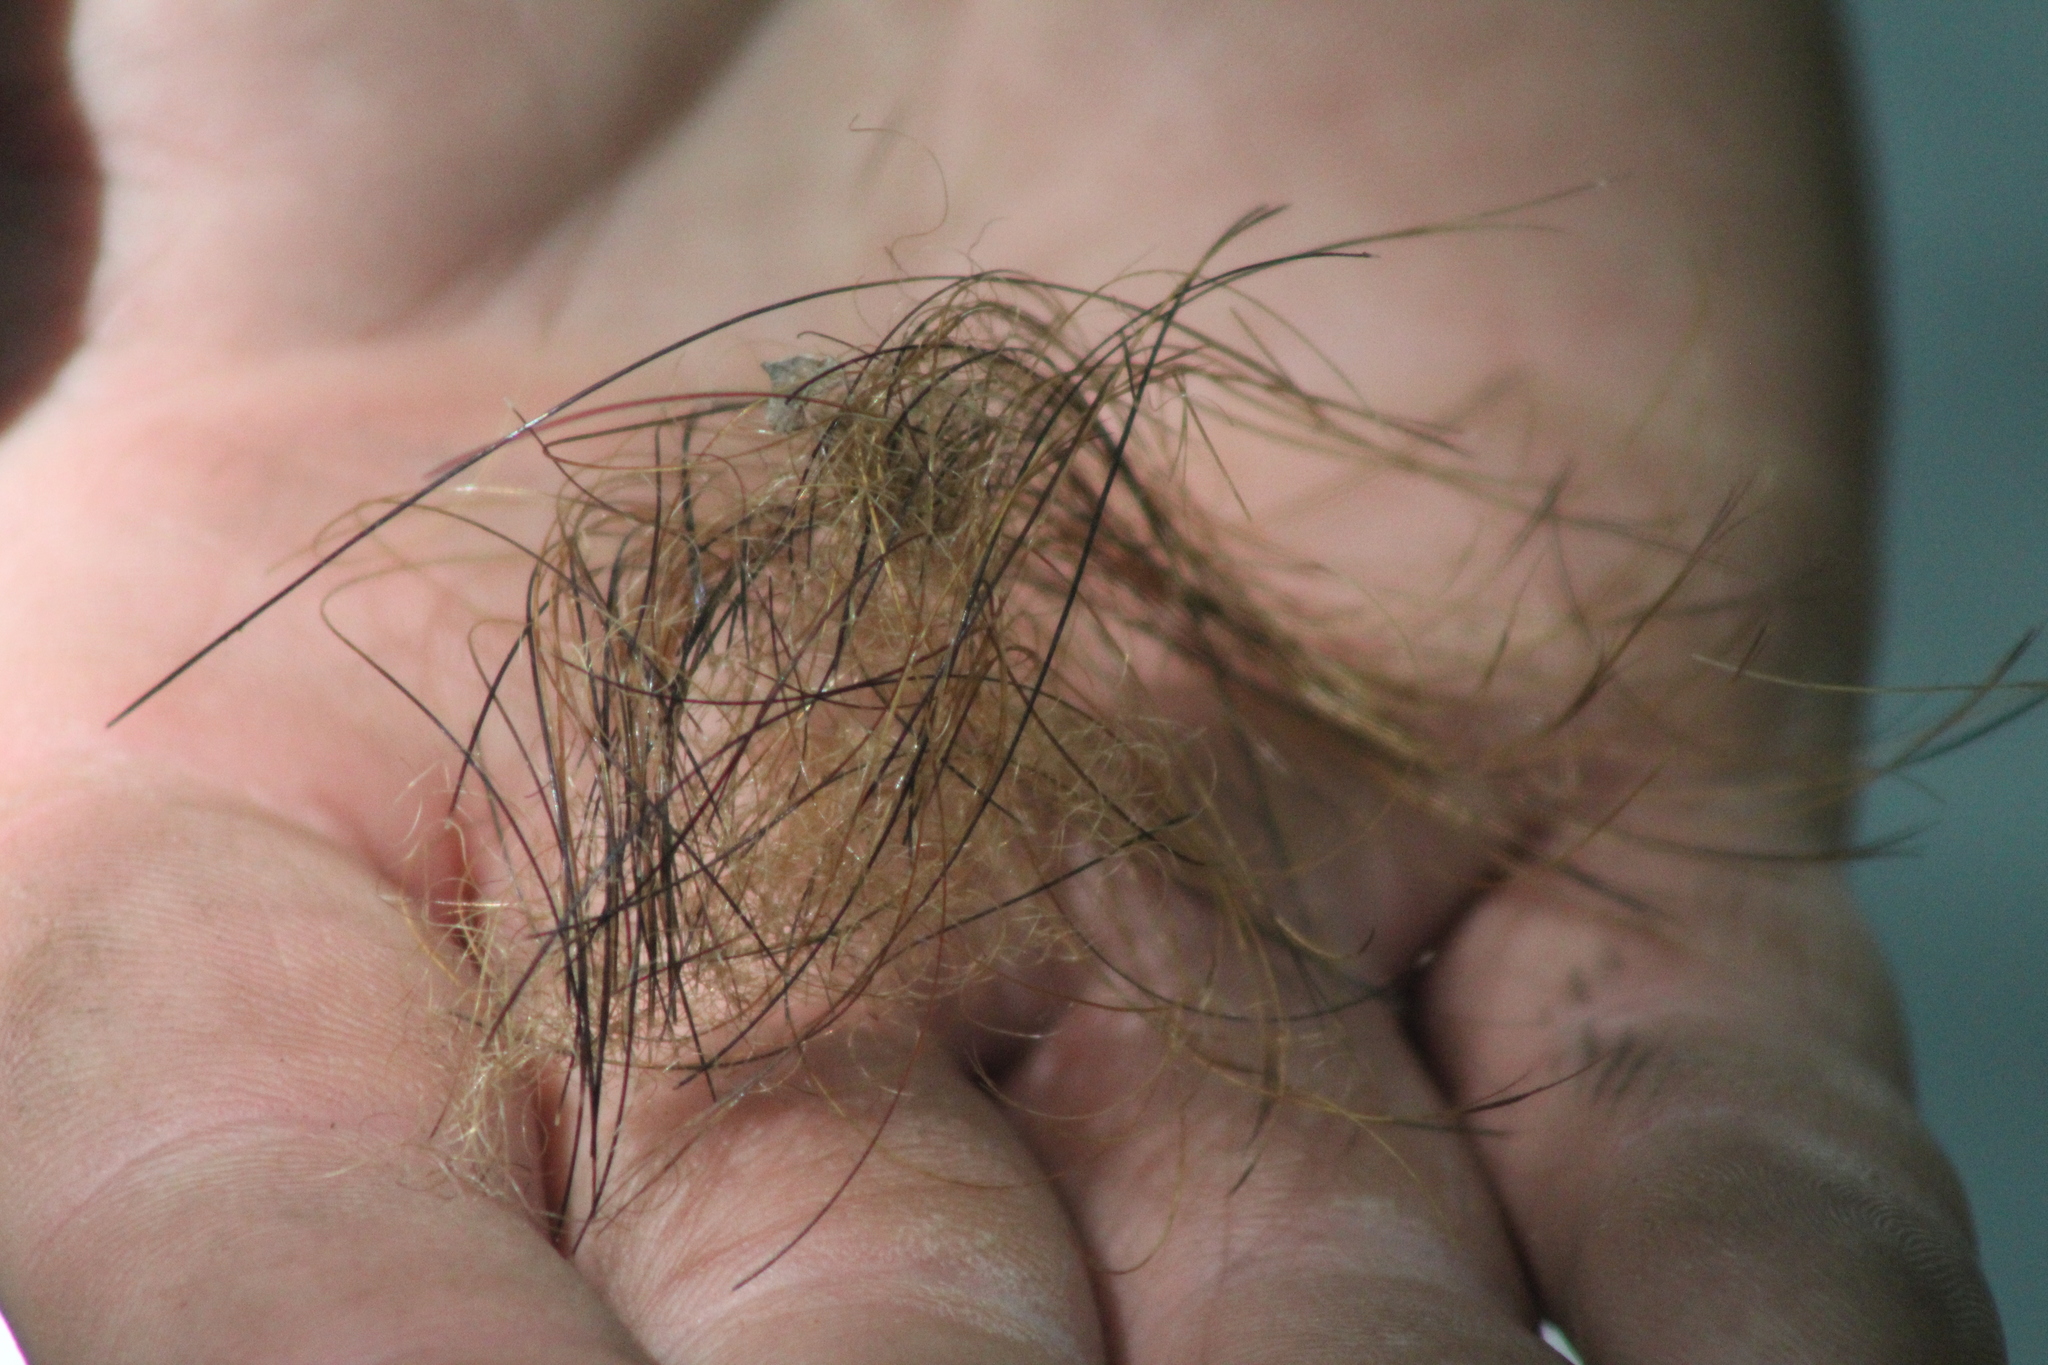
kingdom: Animalia
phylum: Chordata
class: Mammalia
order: Artiodactyla
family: Suidae
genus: Sus
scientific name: Sus scrofa
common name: Wild boar
